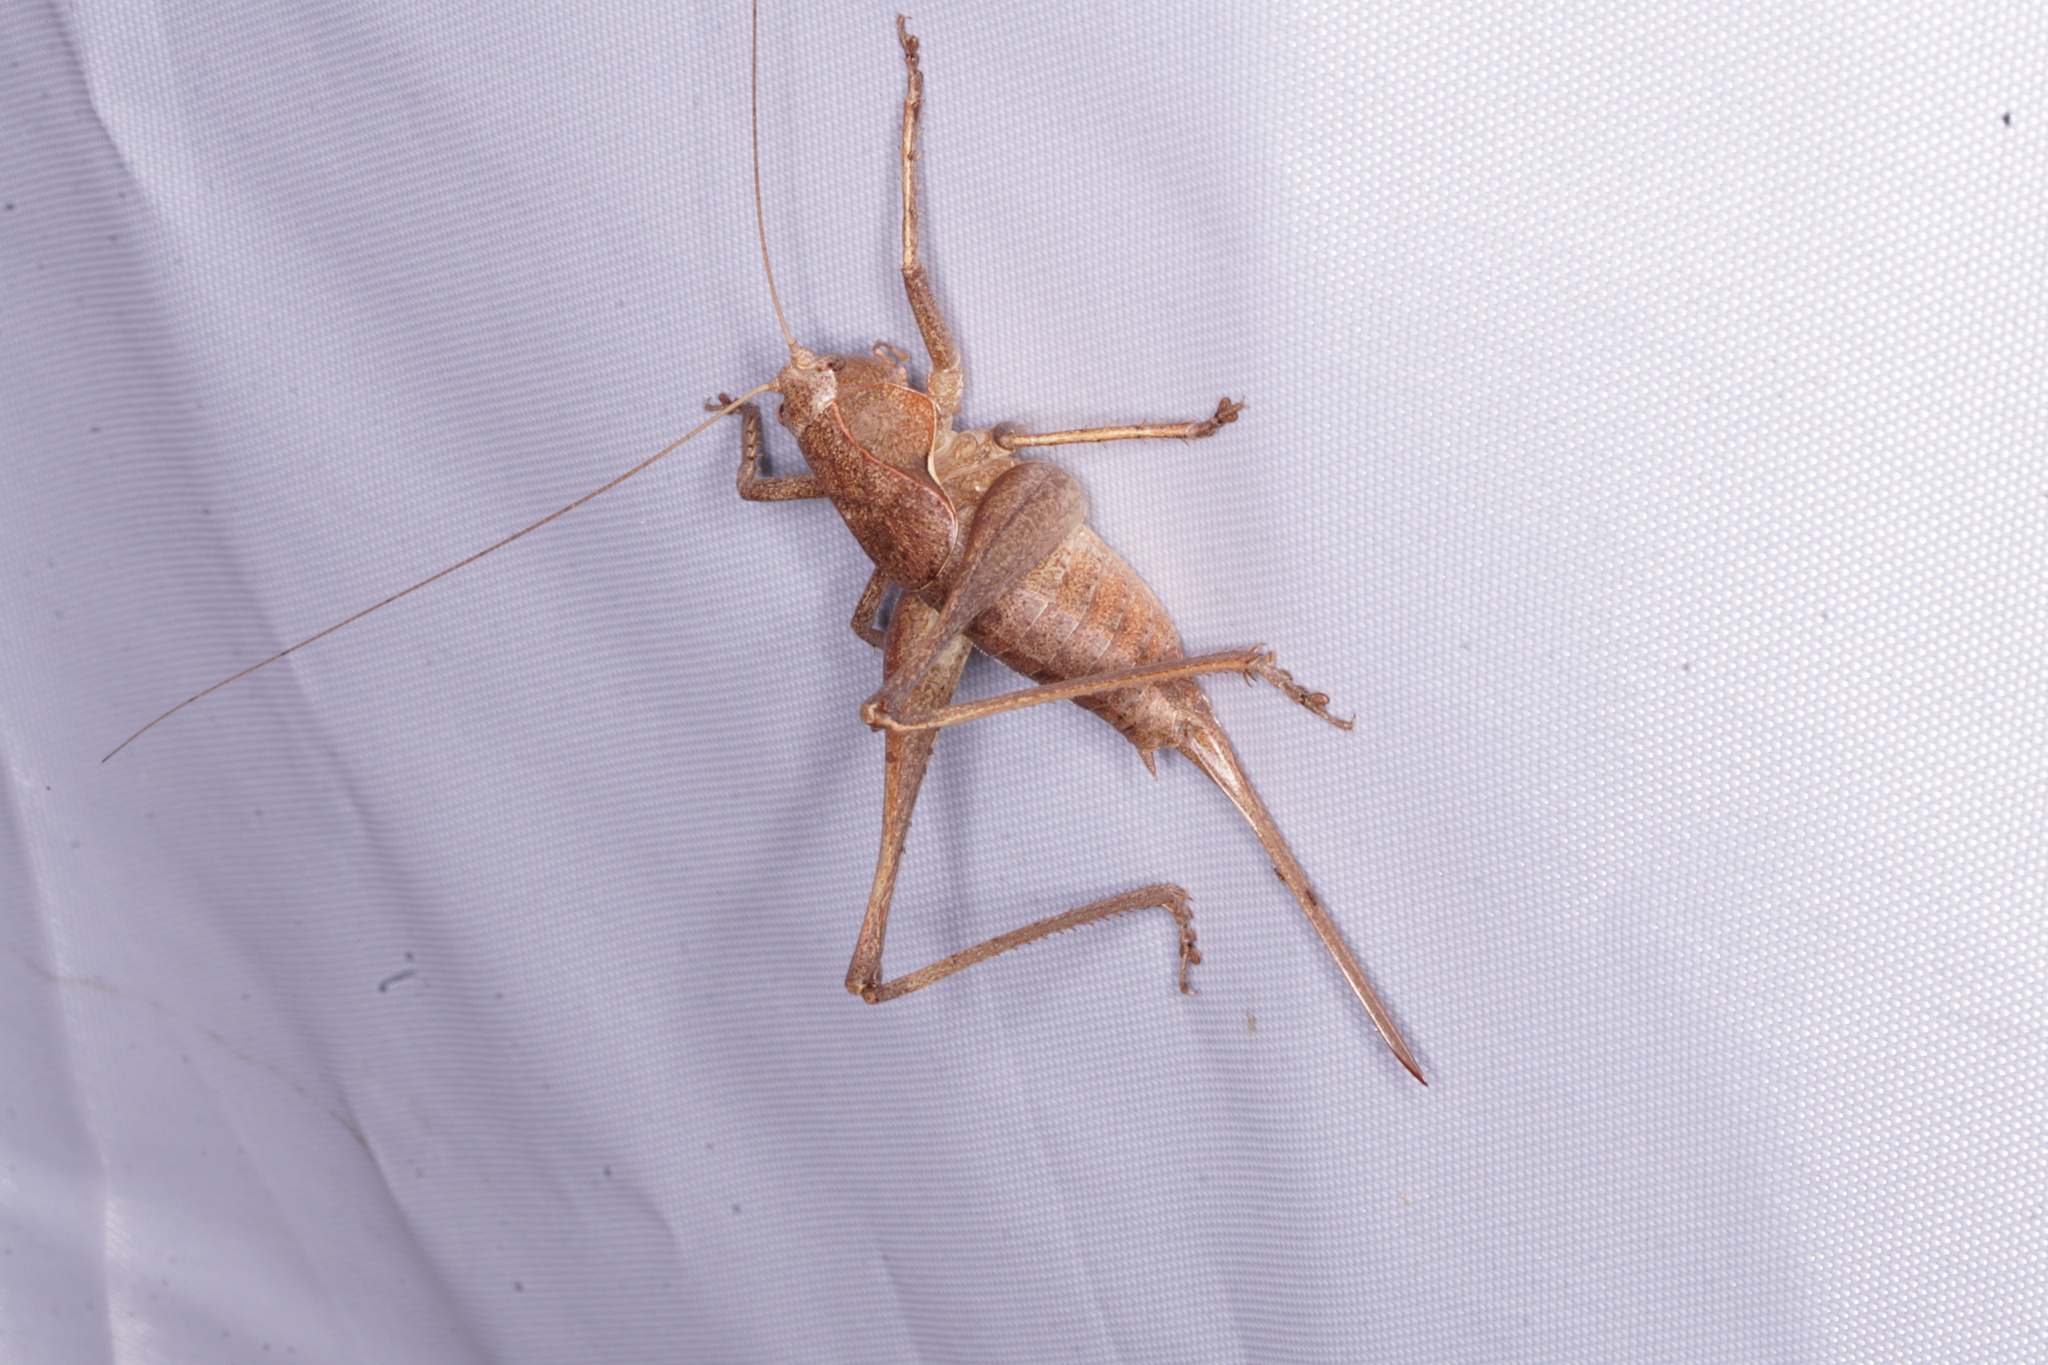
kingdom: Animalia
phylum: Arthropoda
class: Insecta
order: Orthoptera
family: Tettigoniidae
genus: Atlanticus
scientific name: Atlanticus americanus
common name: American shield-bearer
